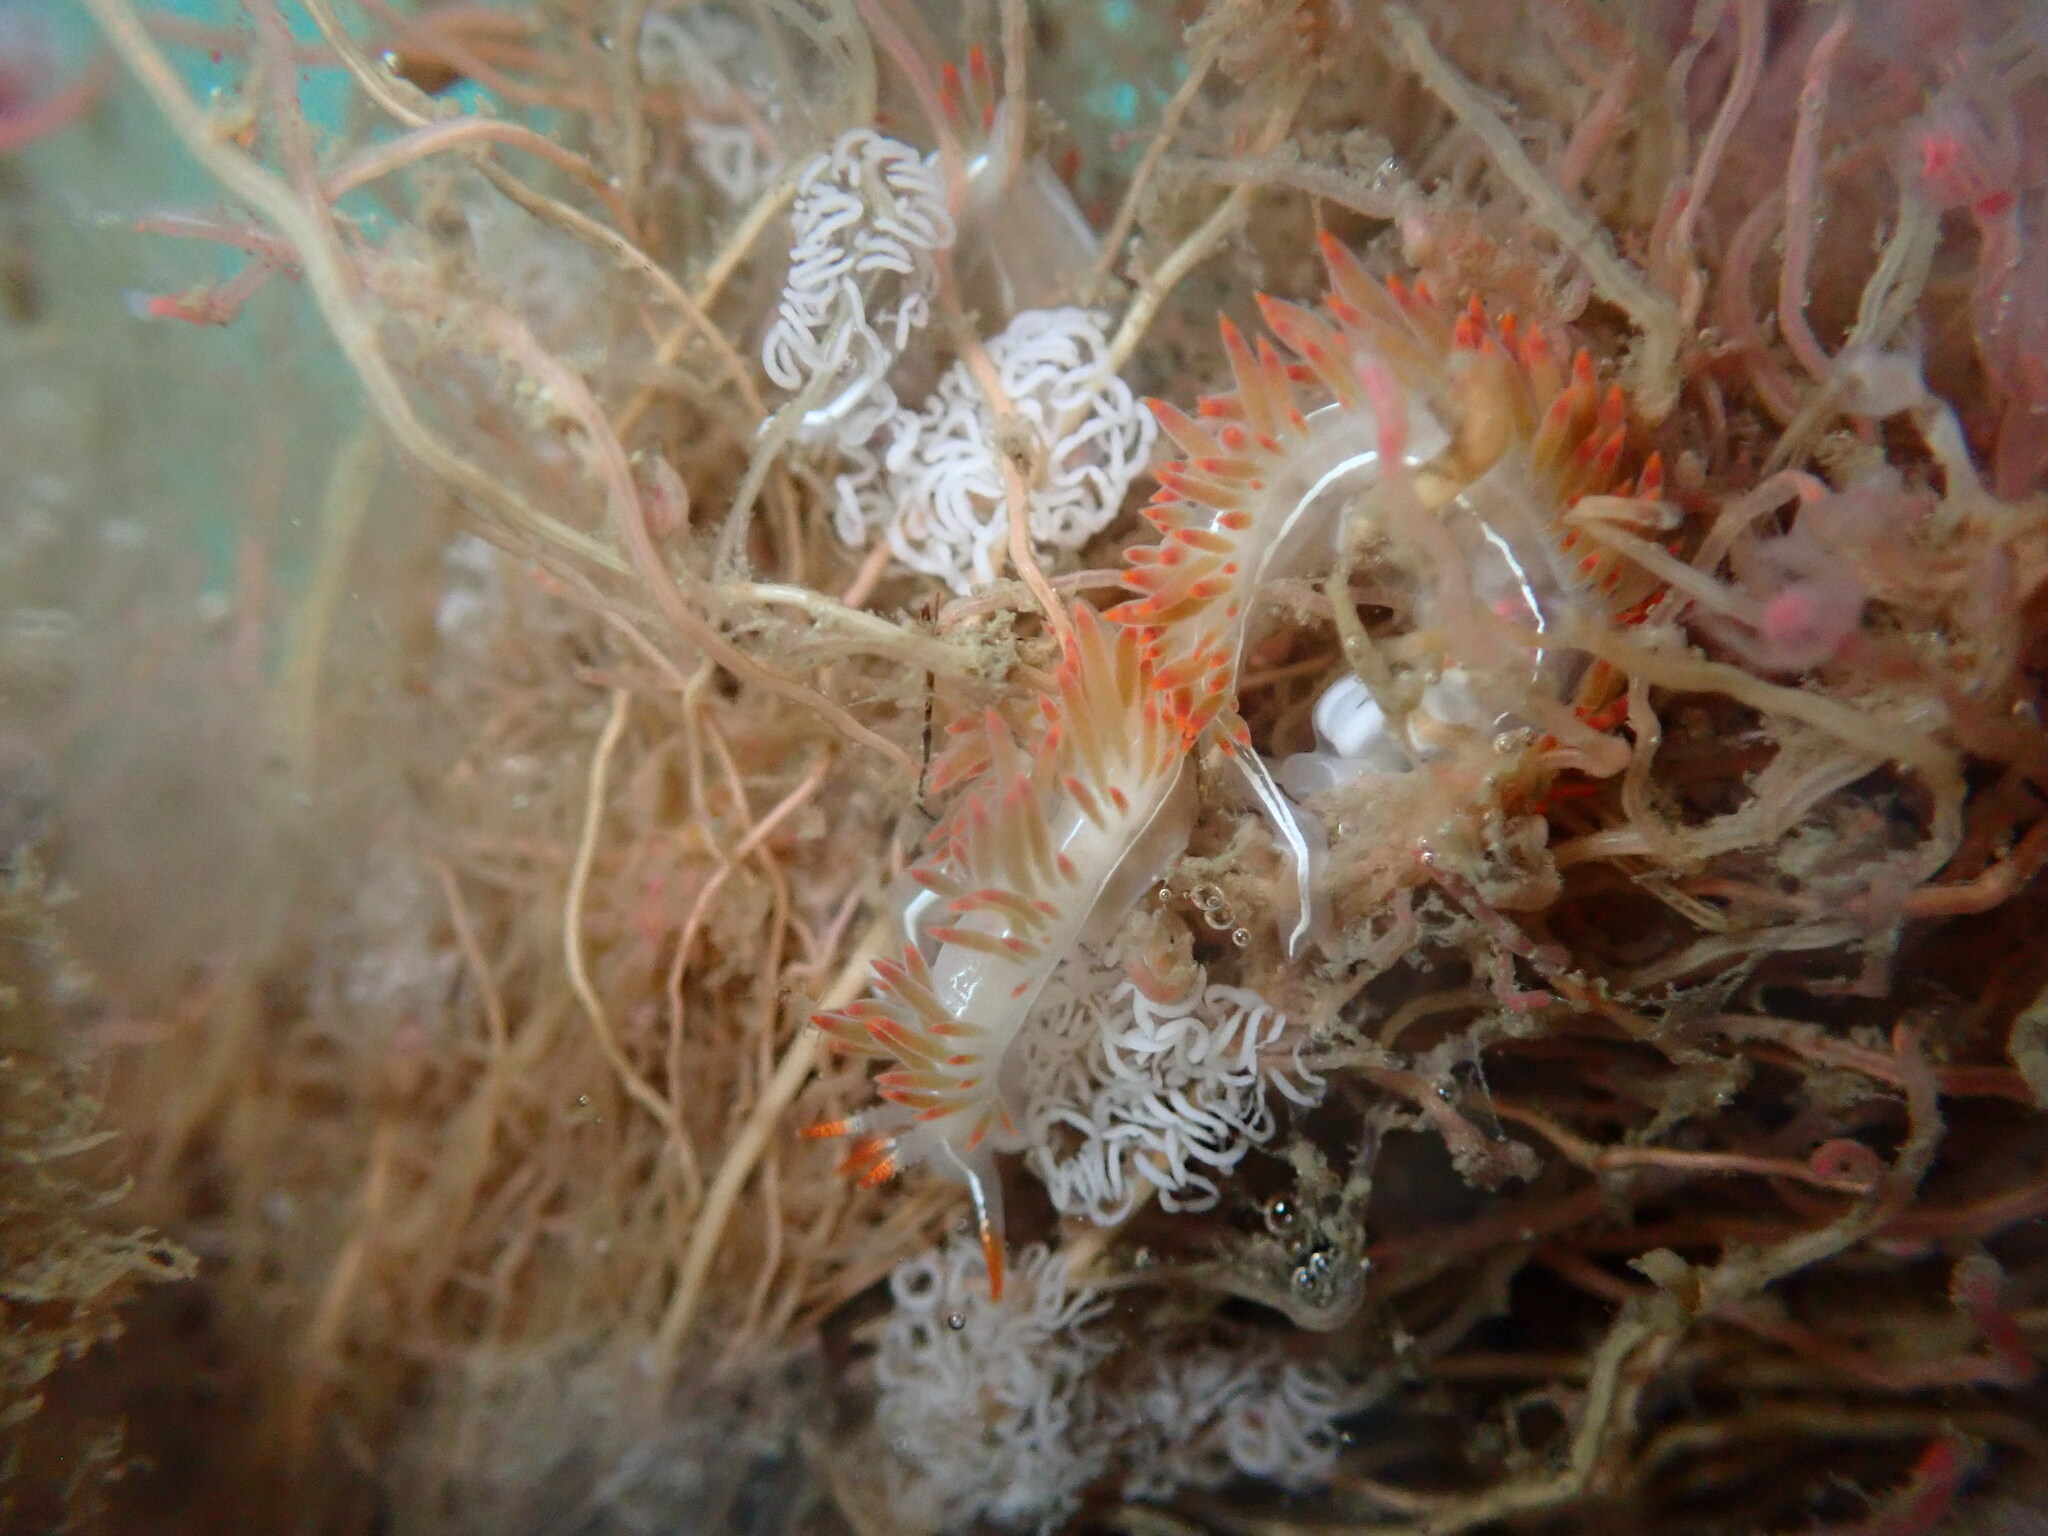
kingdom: Animalia
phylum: Mollusca
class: Gastropoda
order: Nudibranchia
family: Coryphellidae
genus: Coryphella
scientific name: Coryphella trilineata
